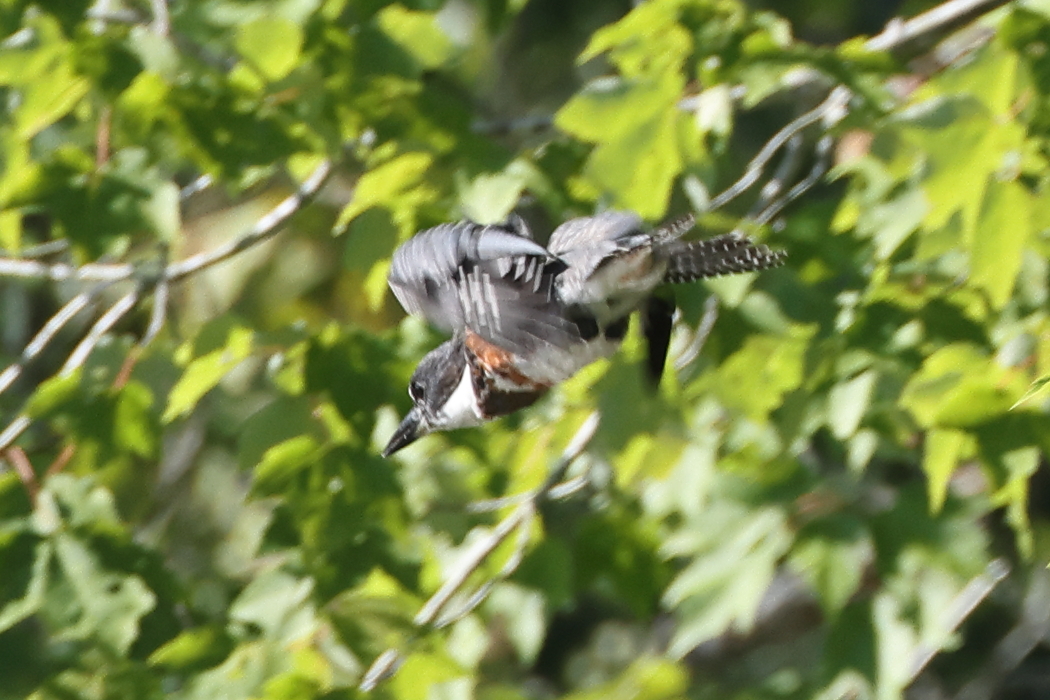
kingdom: Animalia
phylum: Chordata
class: Aves
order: Coraciiformes
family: Alcedinidae
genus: Megaceryle
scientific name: Megaceryle alcyon
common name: Belted kingfisher
